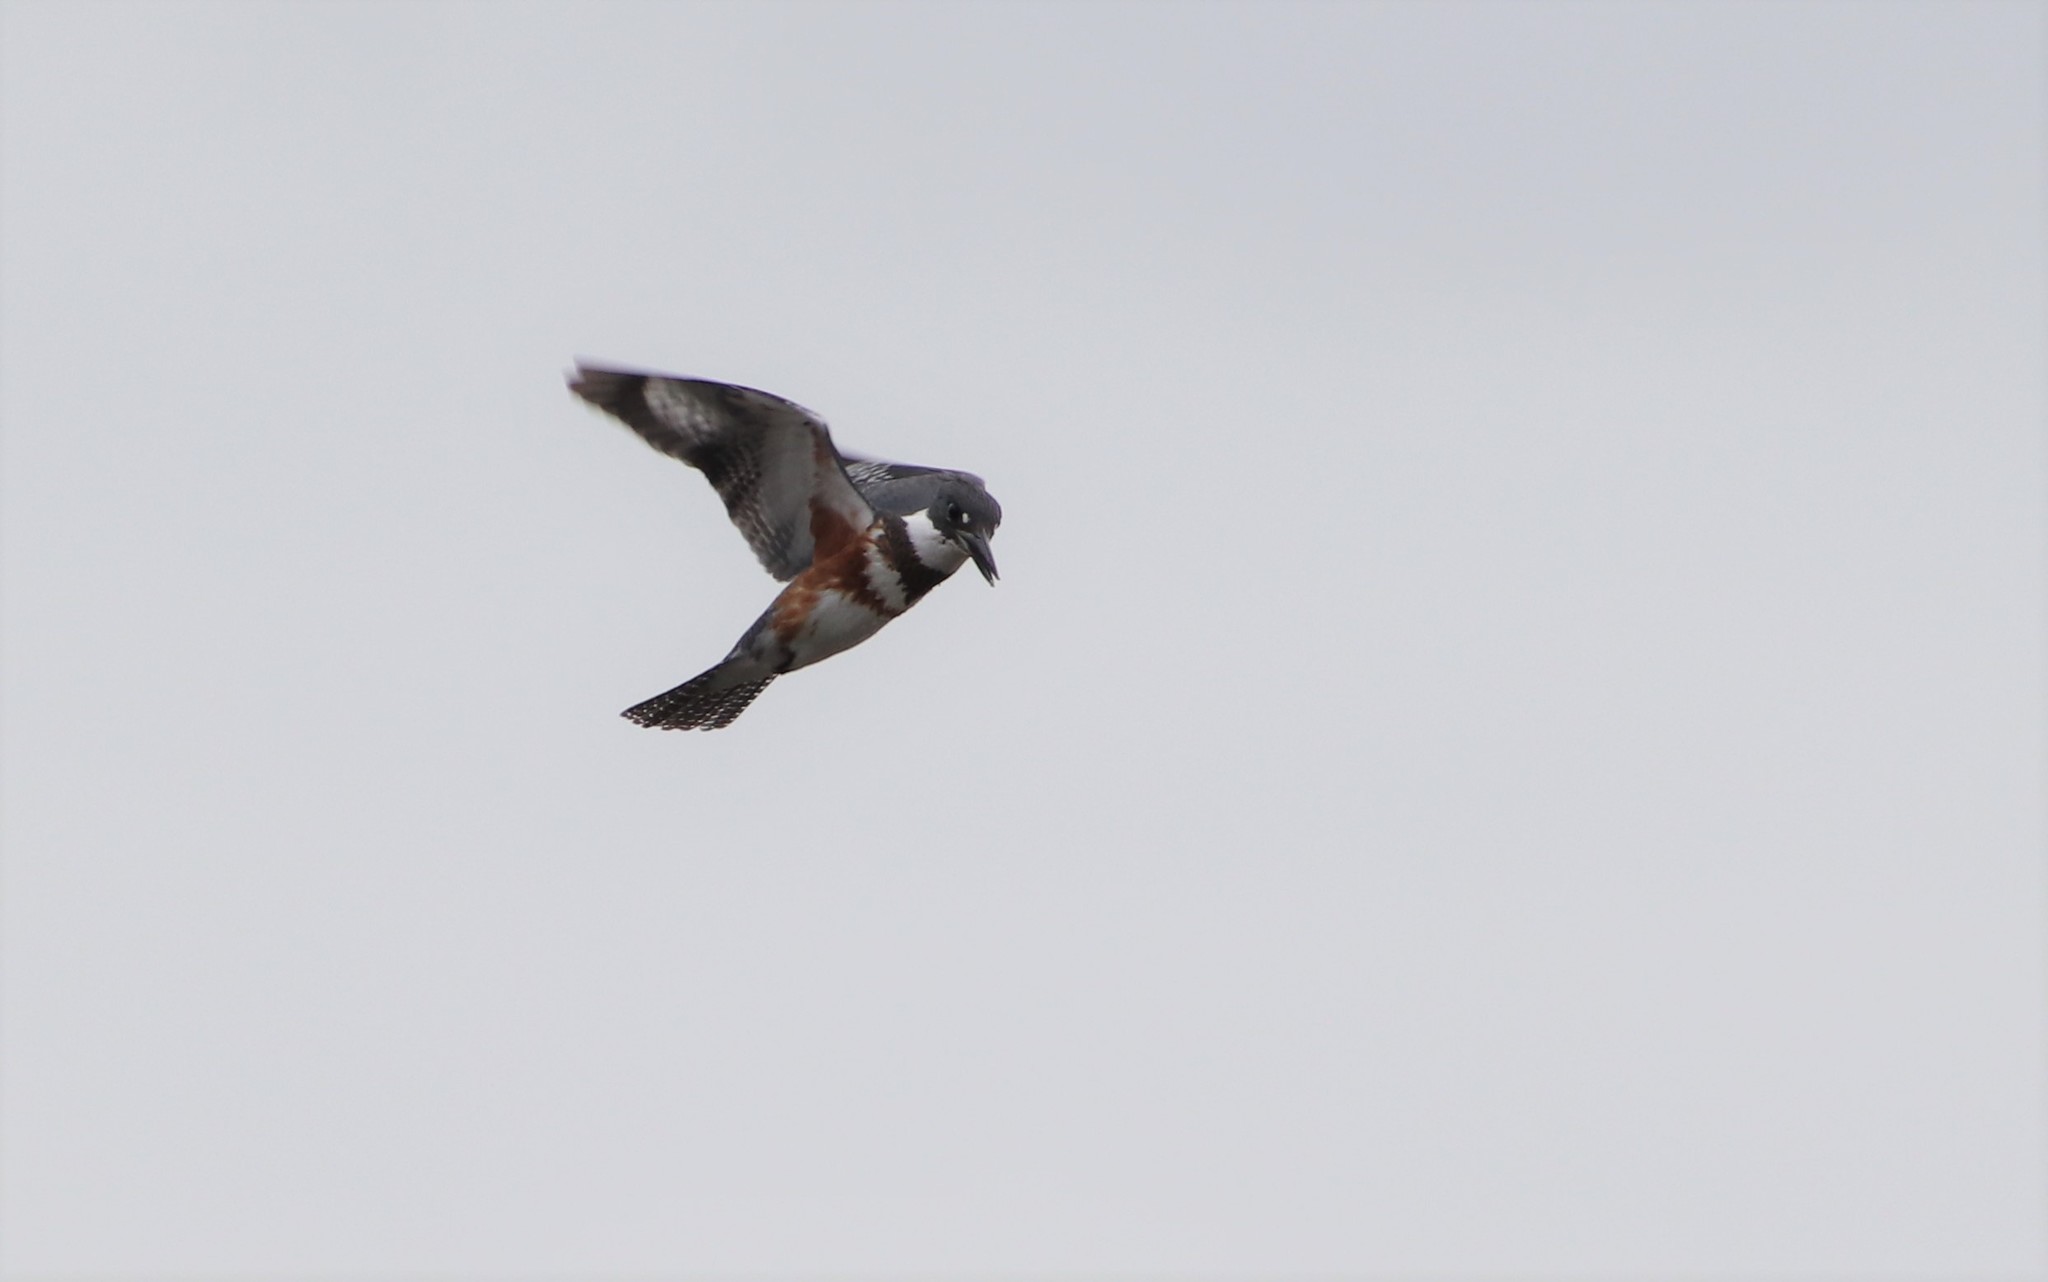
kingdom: Animalia
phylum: Chordata
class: Aves
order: Coraciiformes
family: Alcedinidae
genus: Megaceryle
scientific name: Megaceryle alcyon
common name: Belted kingfisher
